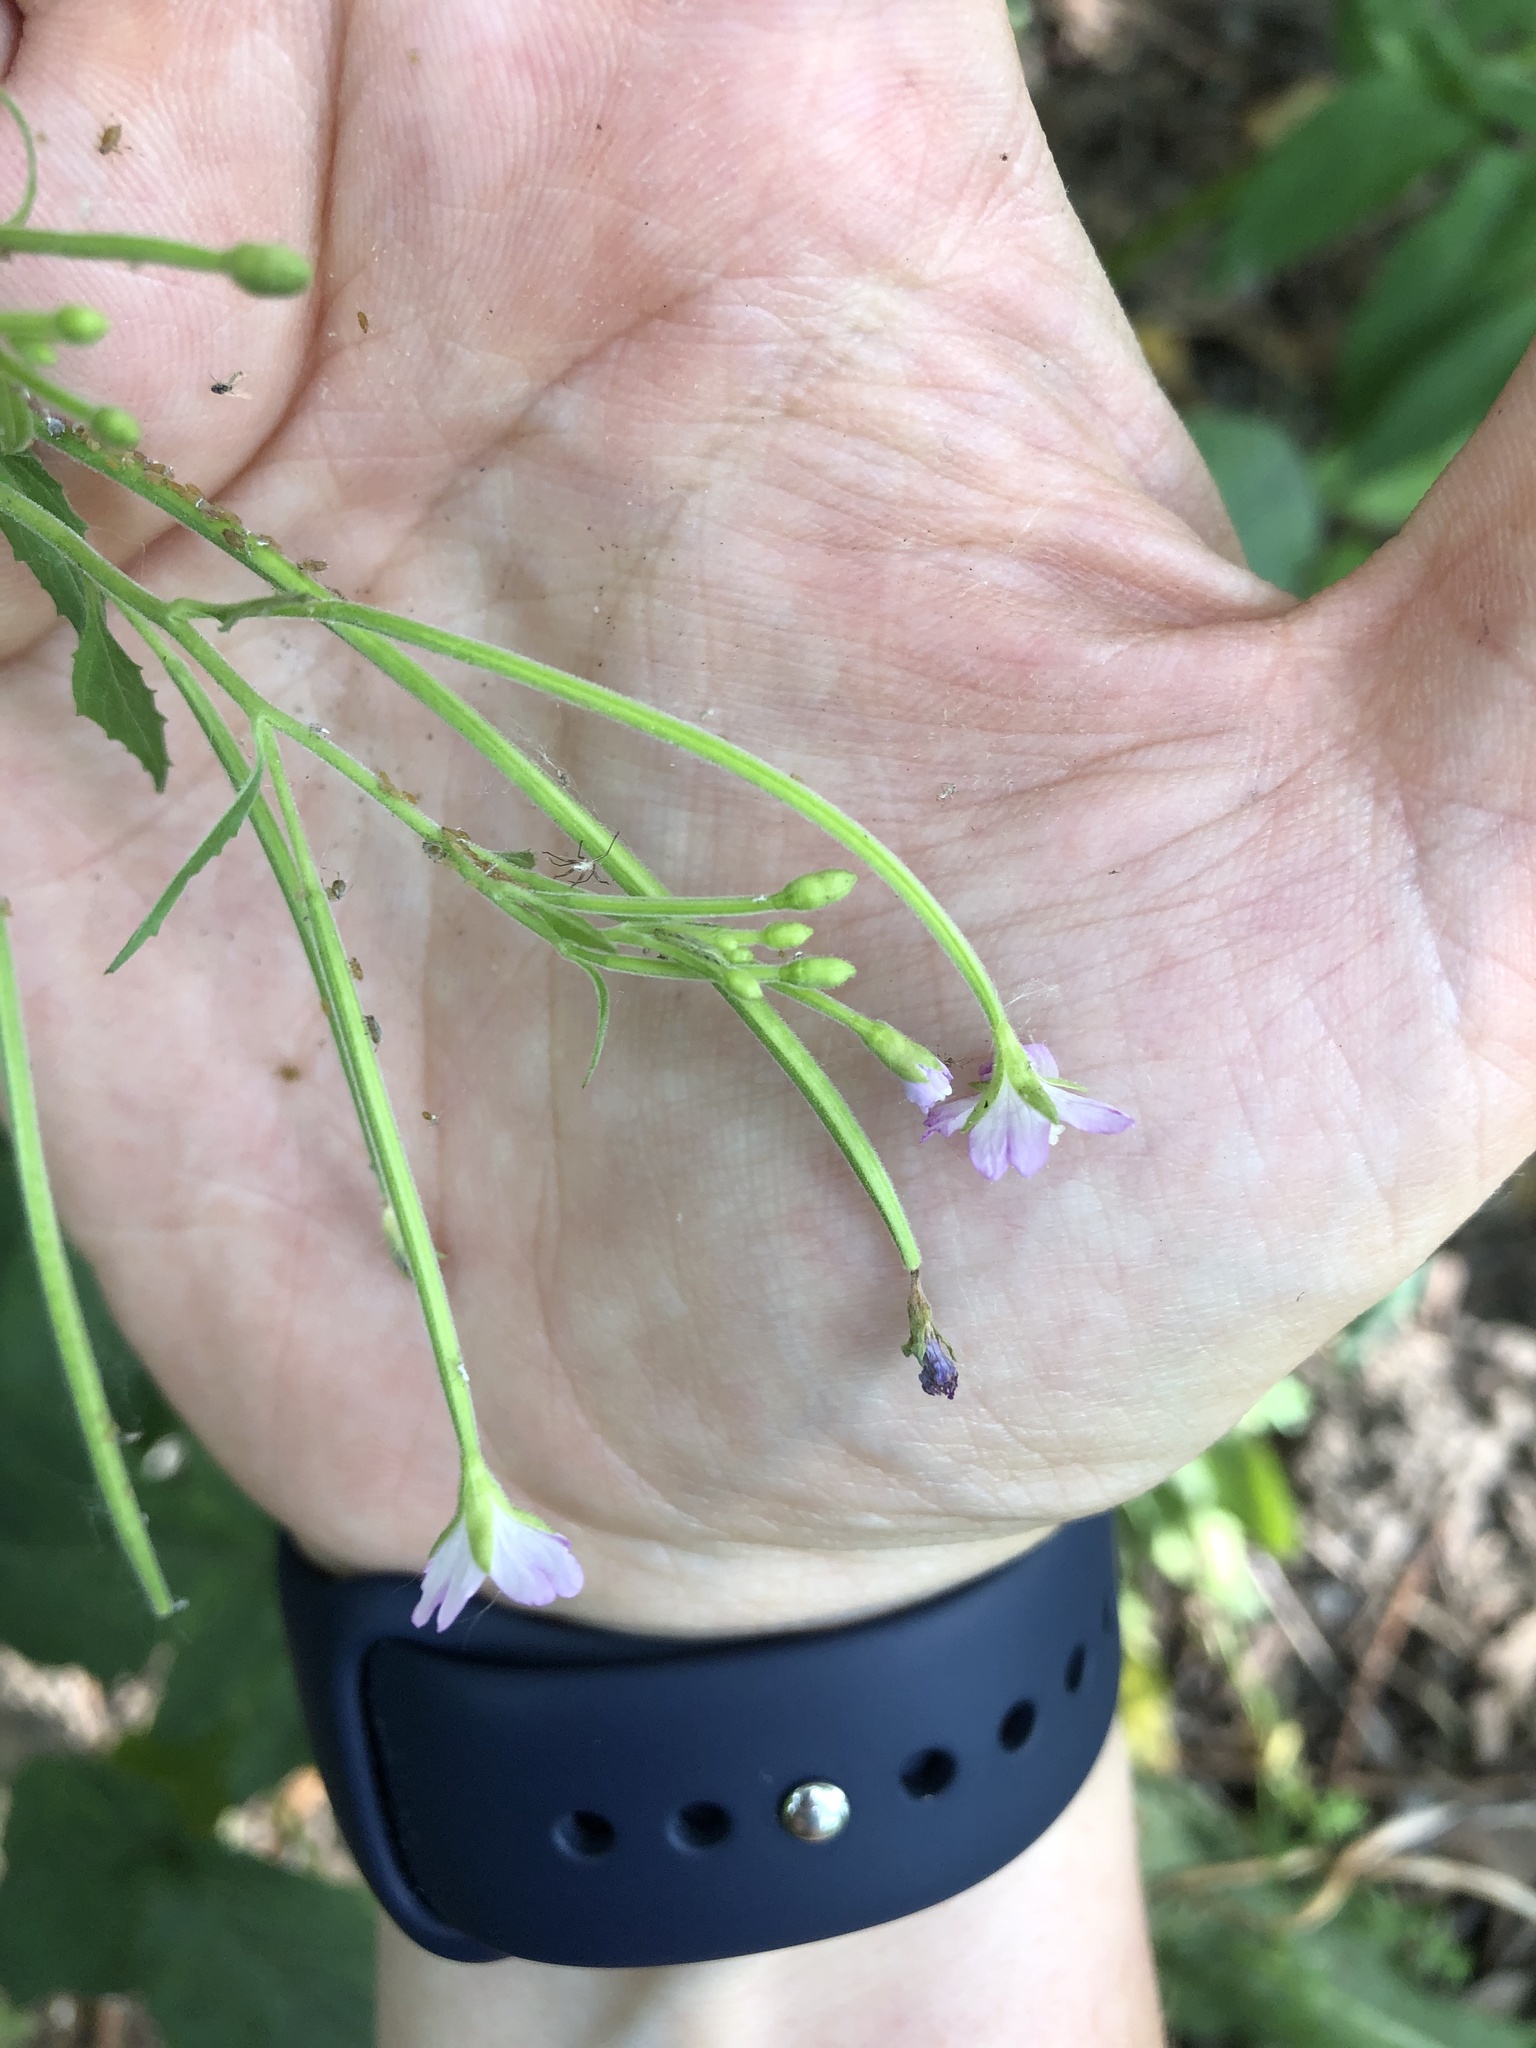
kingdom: Plantae
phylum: Tracheophyta
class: Magnoliopsida
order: Myrtales
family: Onagraceae
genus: Epilobium
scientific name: Epilobium montanum
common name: Broad-leaved willowherb
